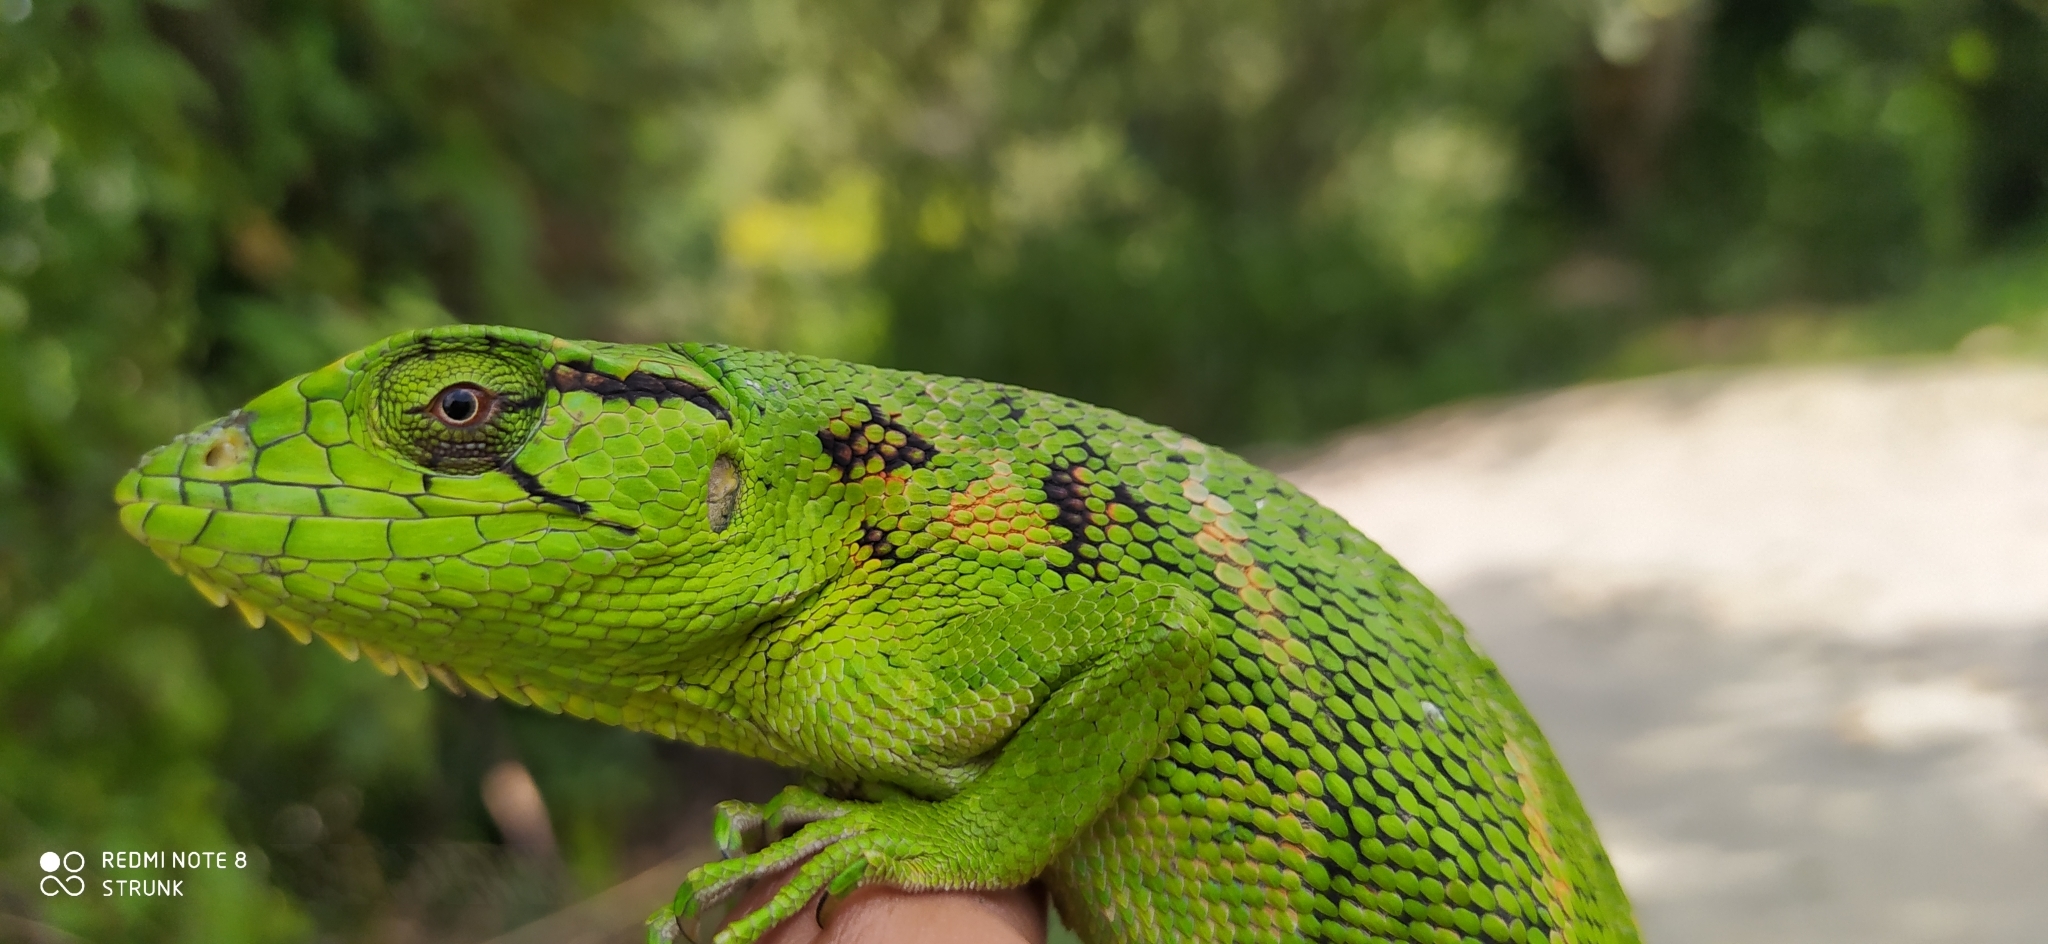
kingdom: Animalia
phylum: Chordata
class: Squamata
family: Polychrotidae
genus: Polychrus
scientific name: Polychrus marmoratus
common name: Many-colored bush anole
